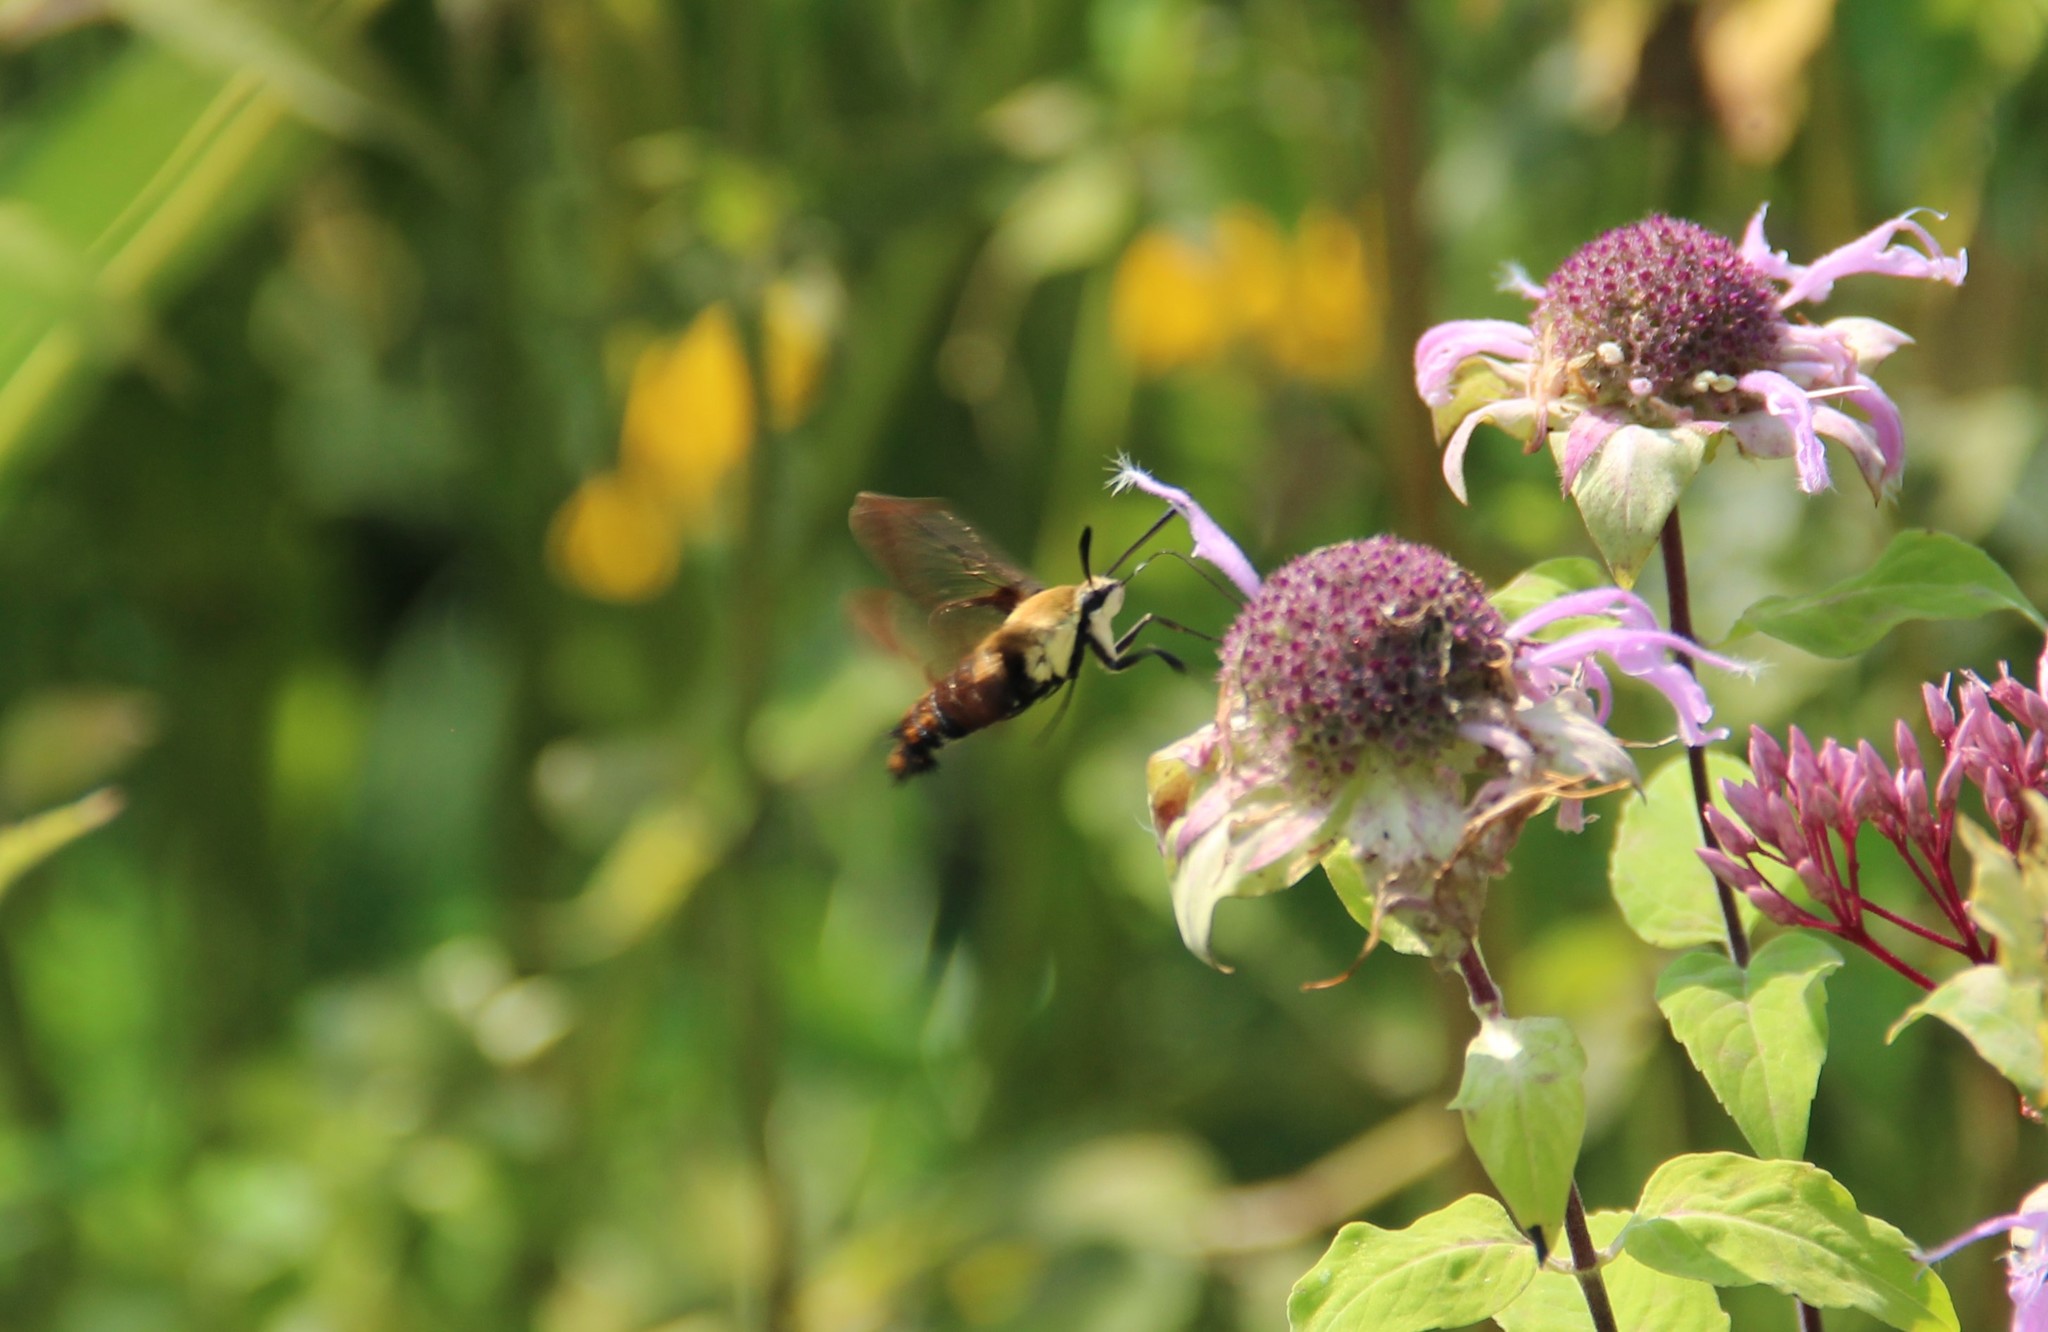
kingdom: Animalia
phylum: Arthropoda
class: Insecta
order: Lepidoptera
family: Sphingidae
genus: Hemaris
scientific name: Hemaris diffinis
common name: Bumblebee moth
